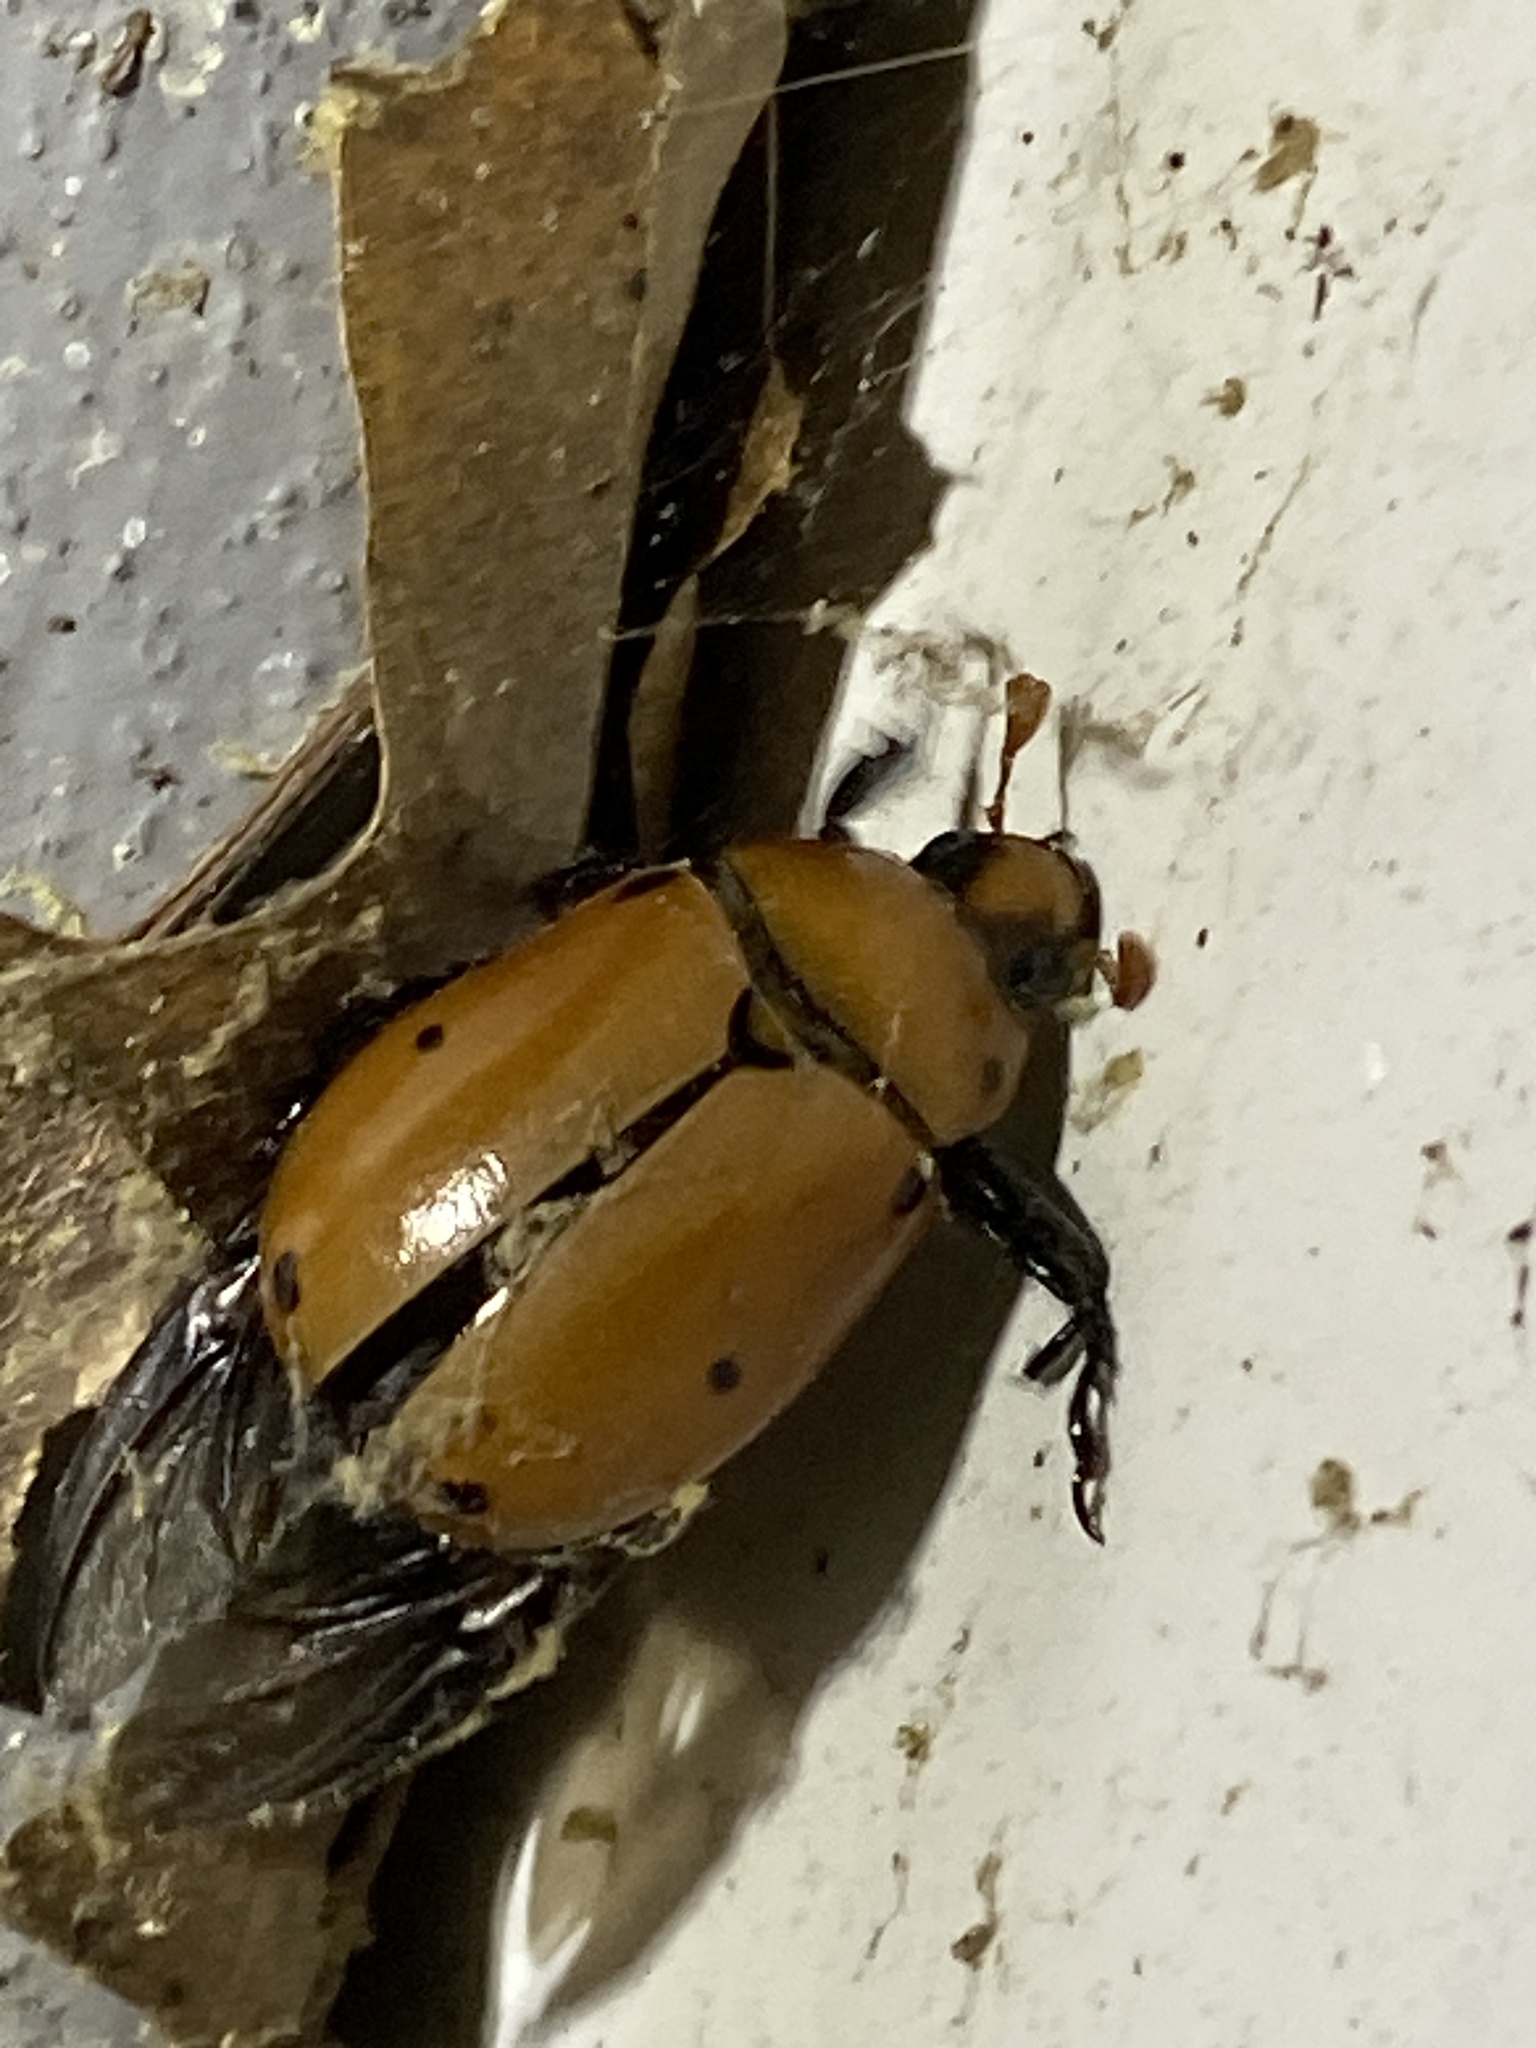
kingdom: Animalia
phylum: Arthropoda
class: Insecta
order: Coleoptera
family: Scarabaeidae
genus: Pelidnota
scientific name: Pelidnota punctata
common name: Grapevine beetle
